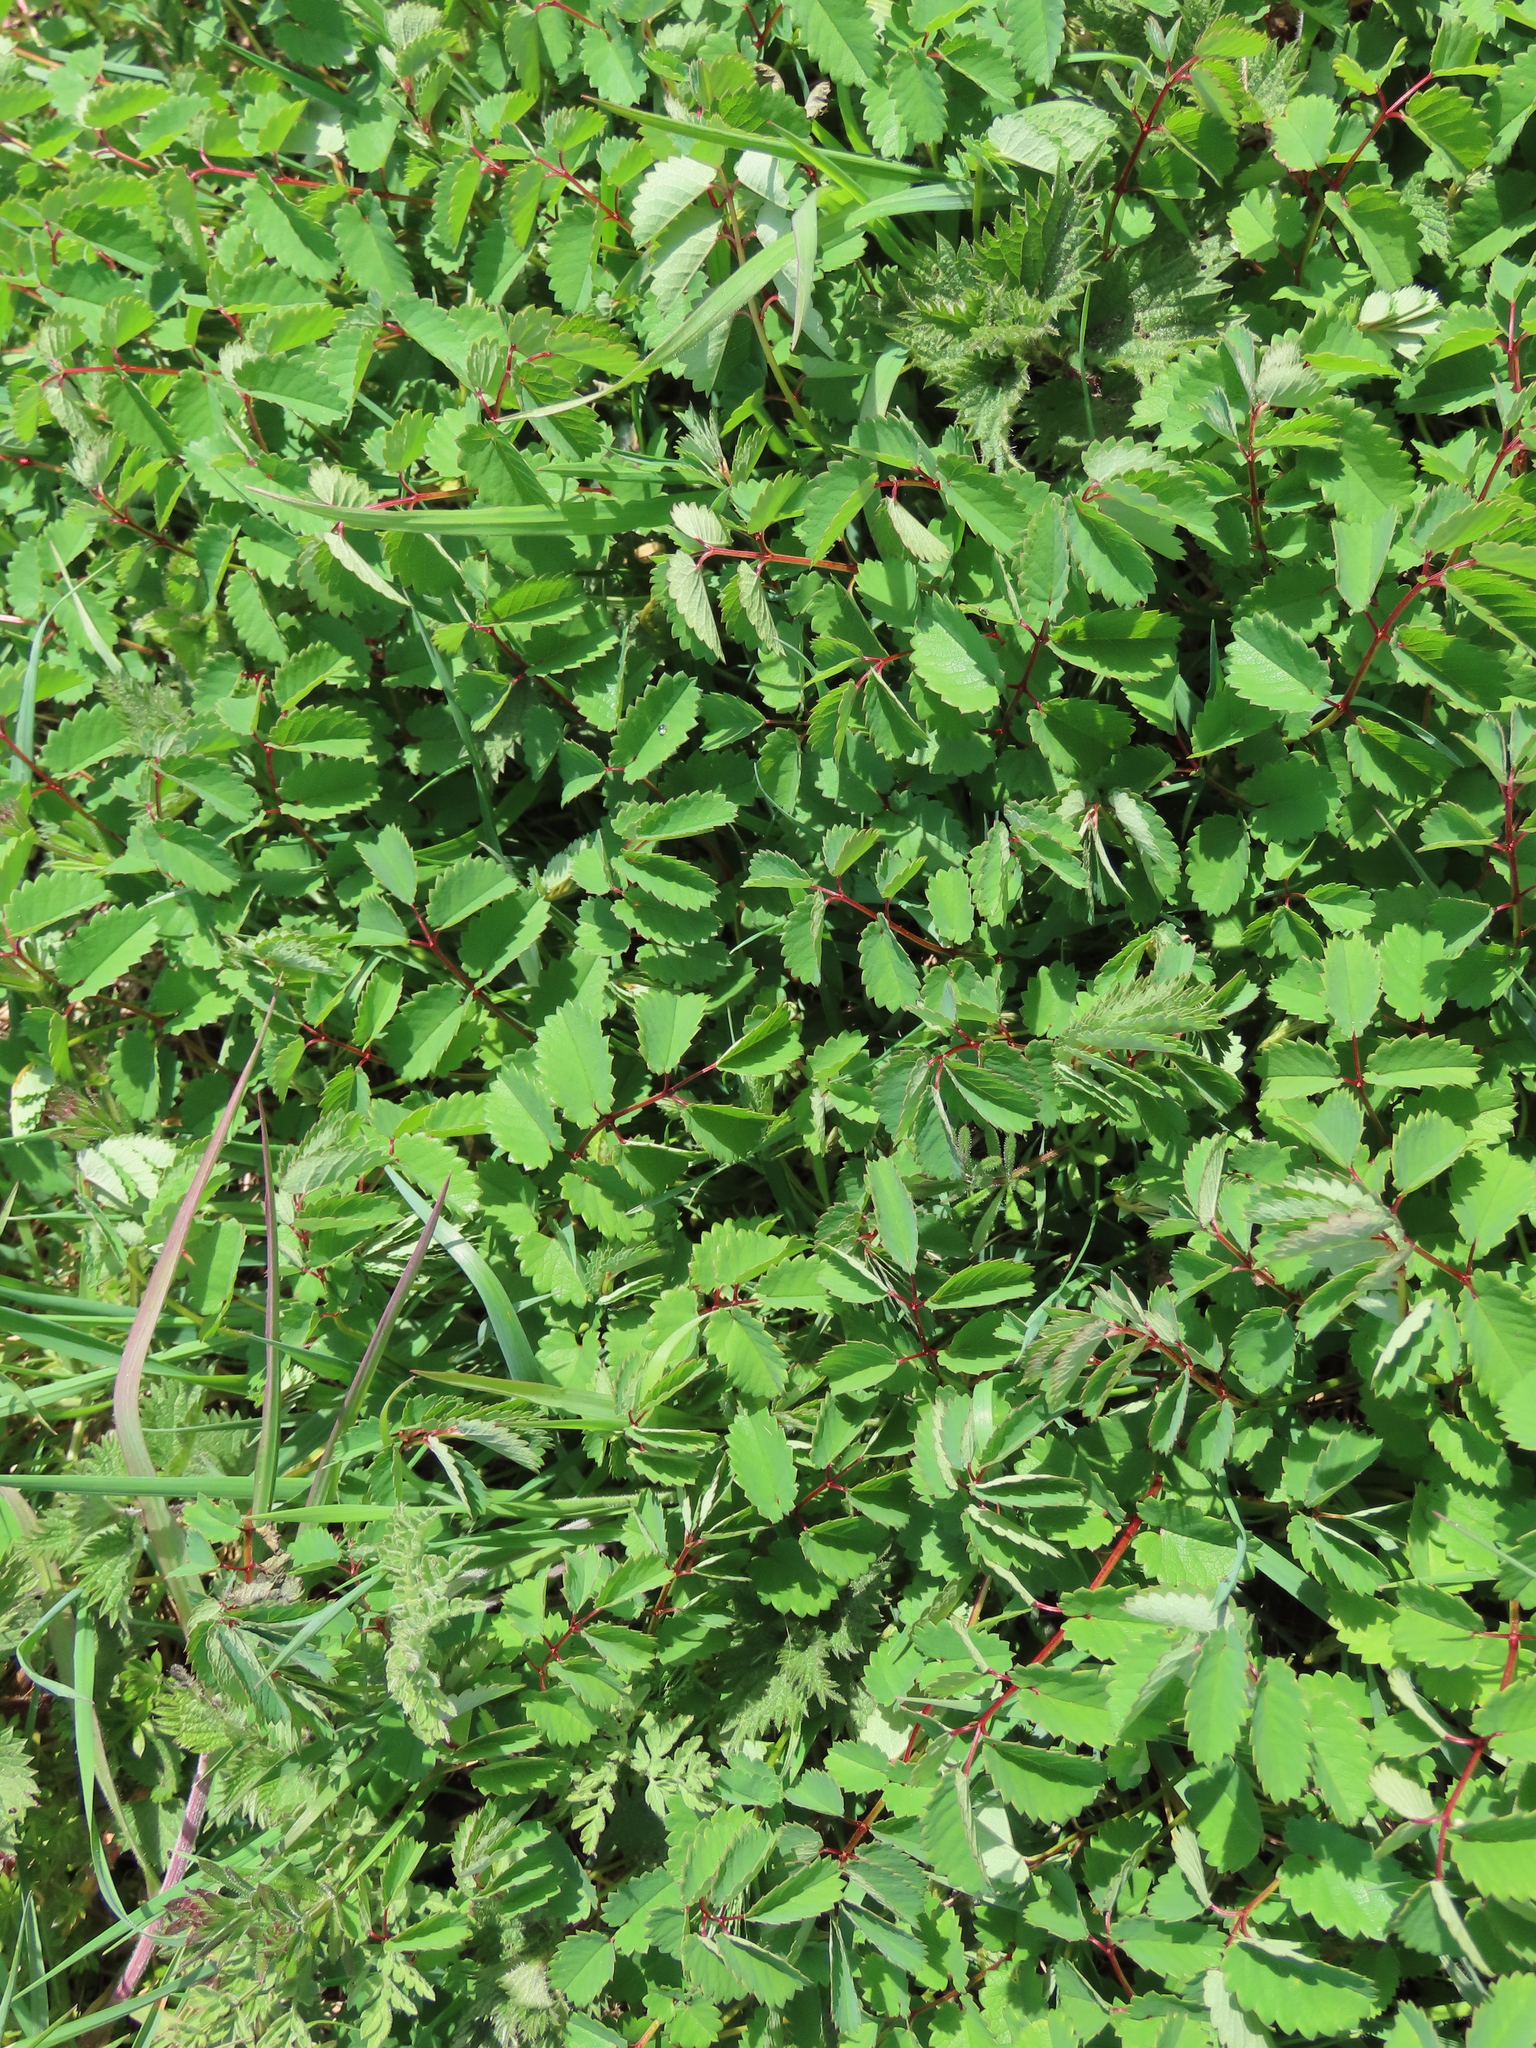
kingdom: Plantae
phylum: Tracheophyta
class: Magnoliopsida
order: Rosales
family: Rosaceae
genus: Sanguisorba
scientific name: Sanguisorba officinalis
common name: Great burnet
